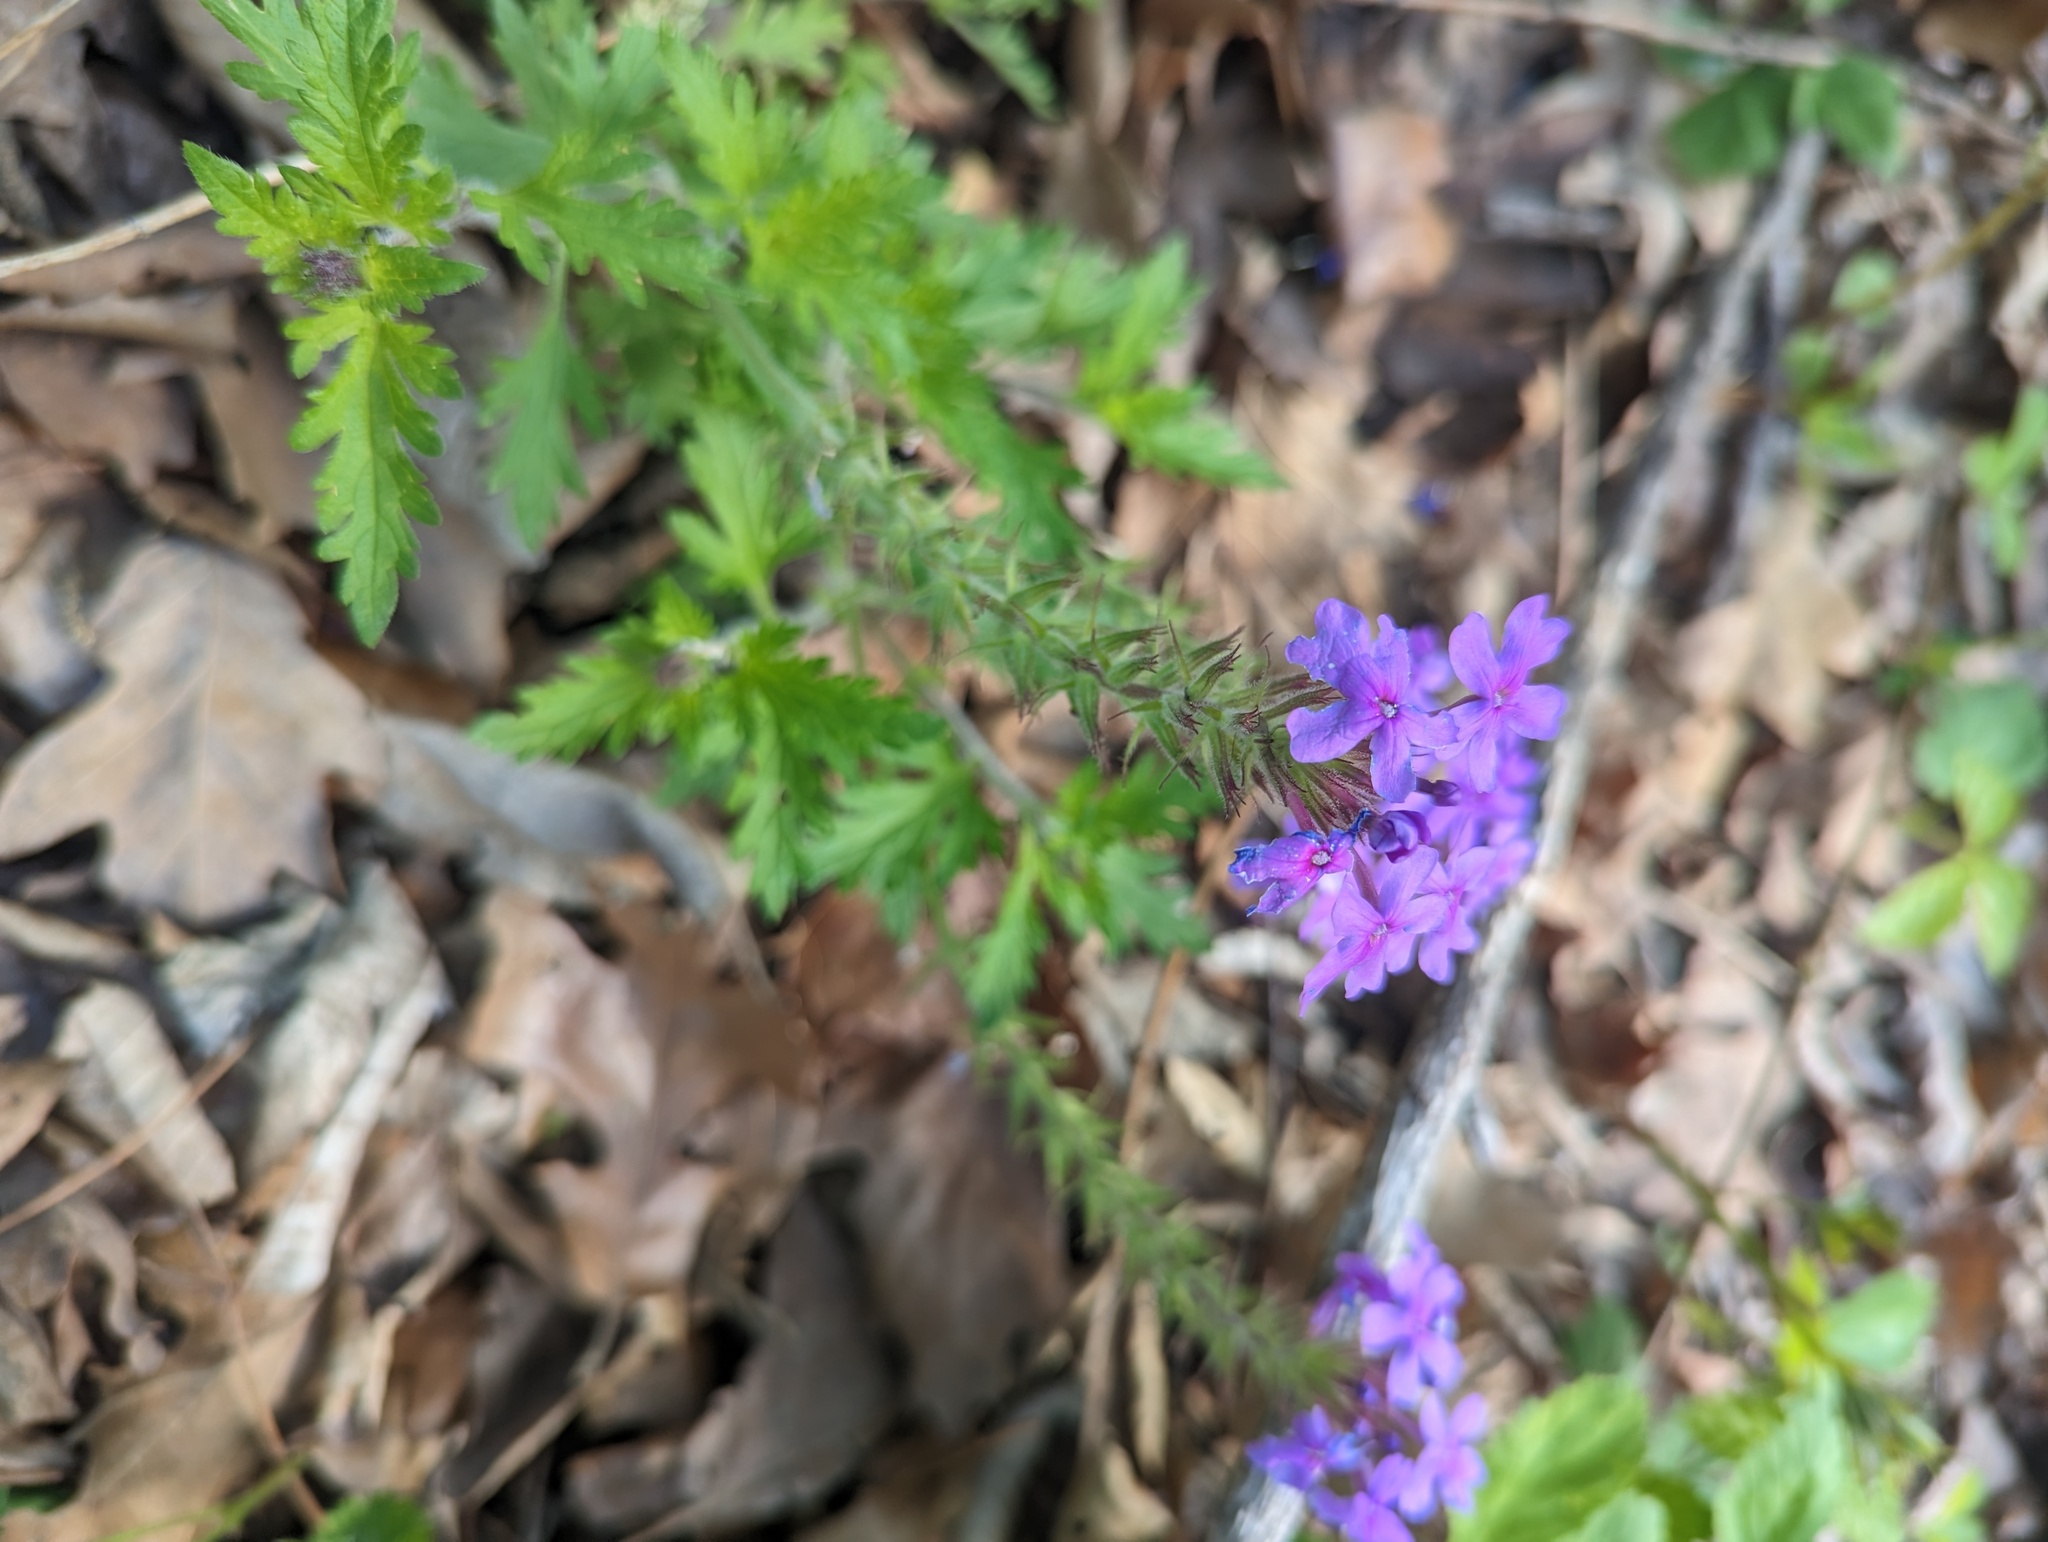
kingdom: Plantae
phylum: Tracheophyta
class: Magnoliopsida
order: Lamiales
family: Verbenaceae
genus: Verbena
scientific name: Verbena canadensis
